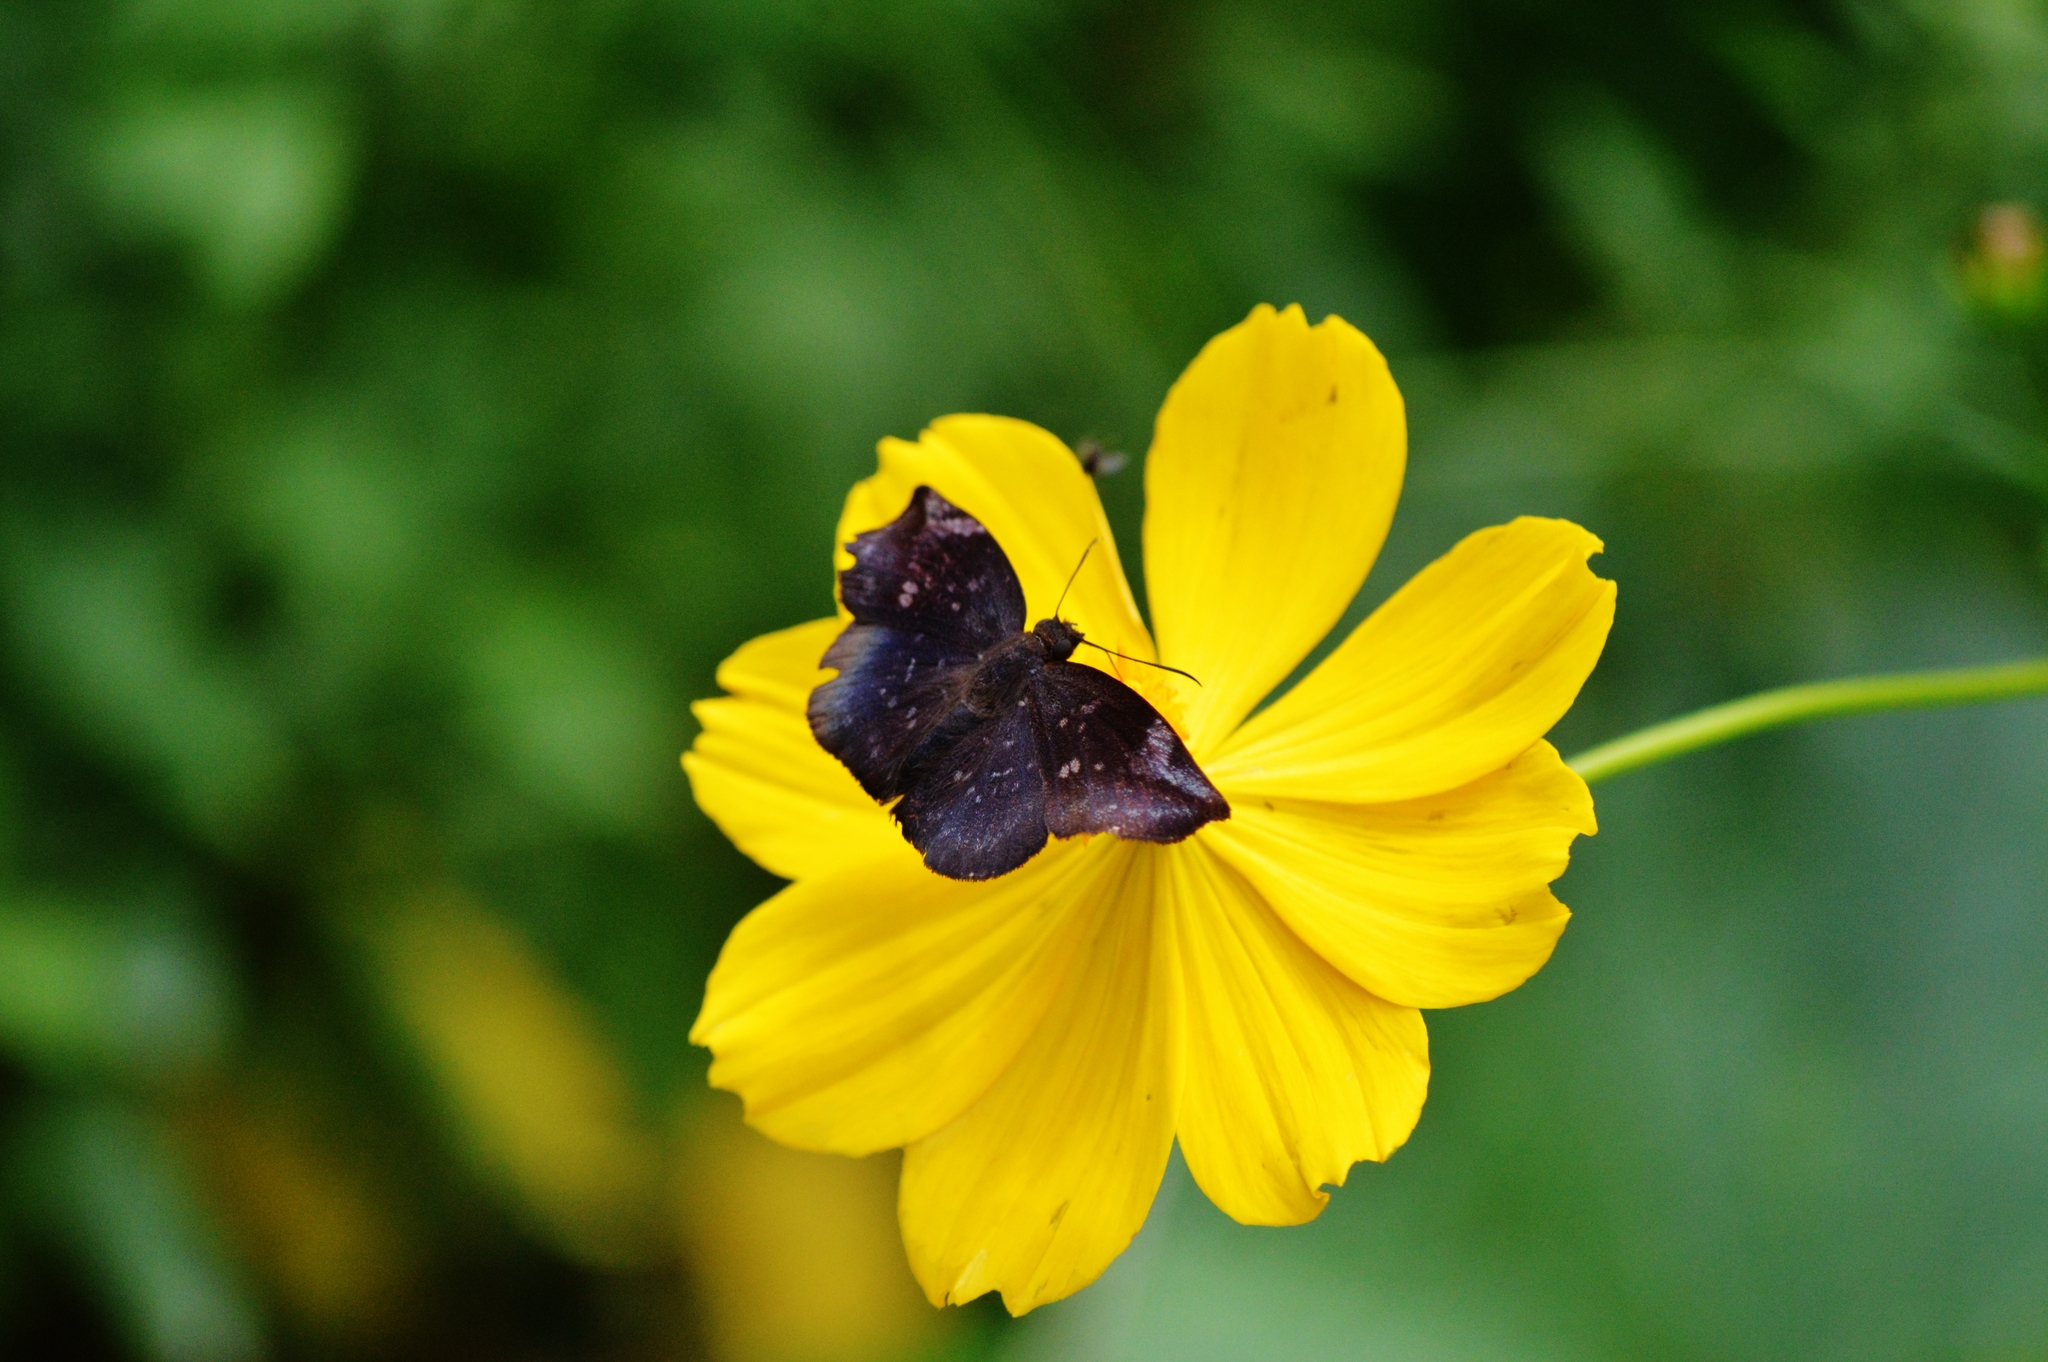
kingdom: Animalia
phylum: Arthropoda
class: Insecta
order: Lepidoptera
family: Hesperiidae
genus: Achlyodes
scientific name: Achlyodes thraso
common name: Sickle-winged skipper
